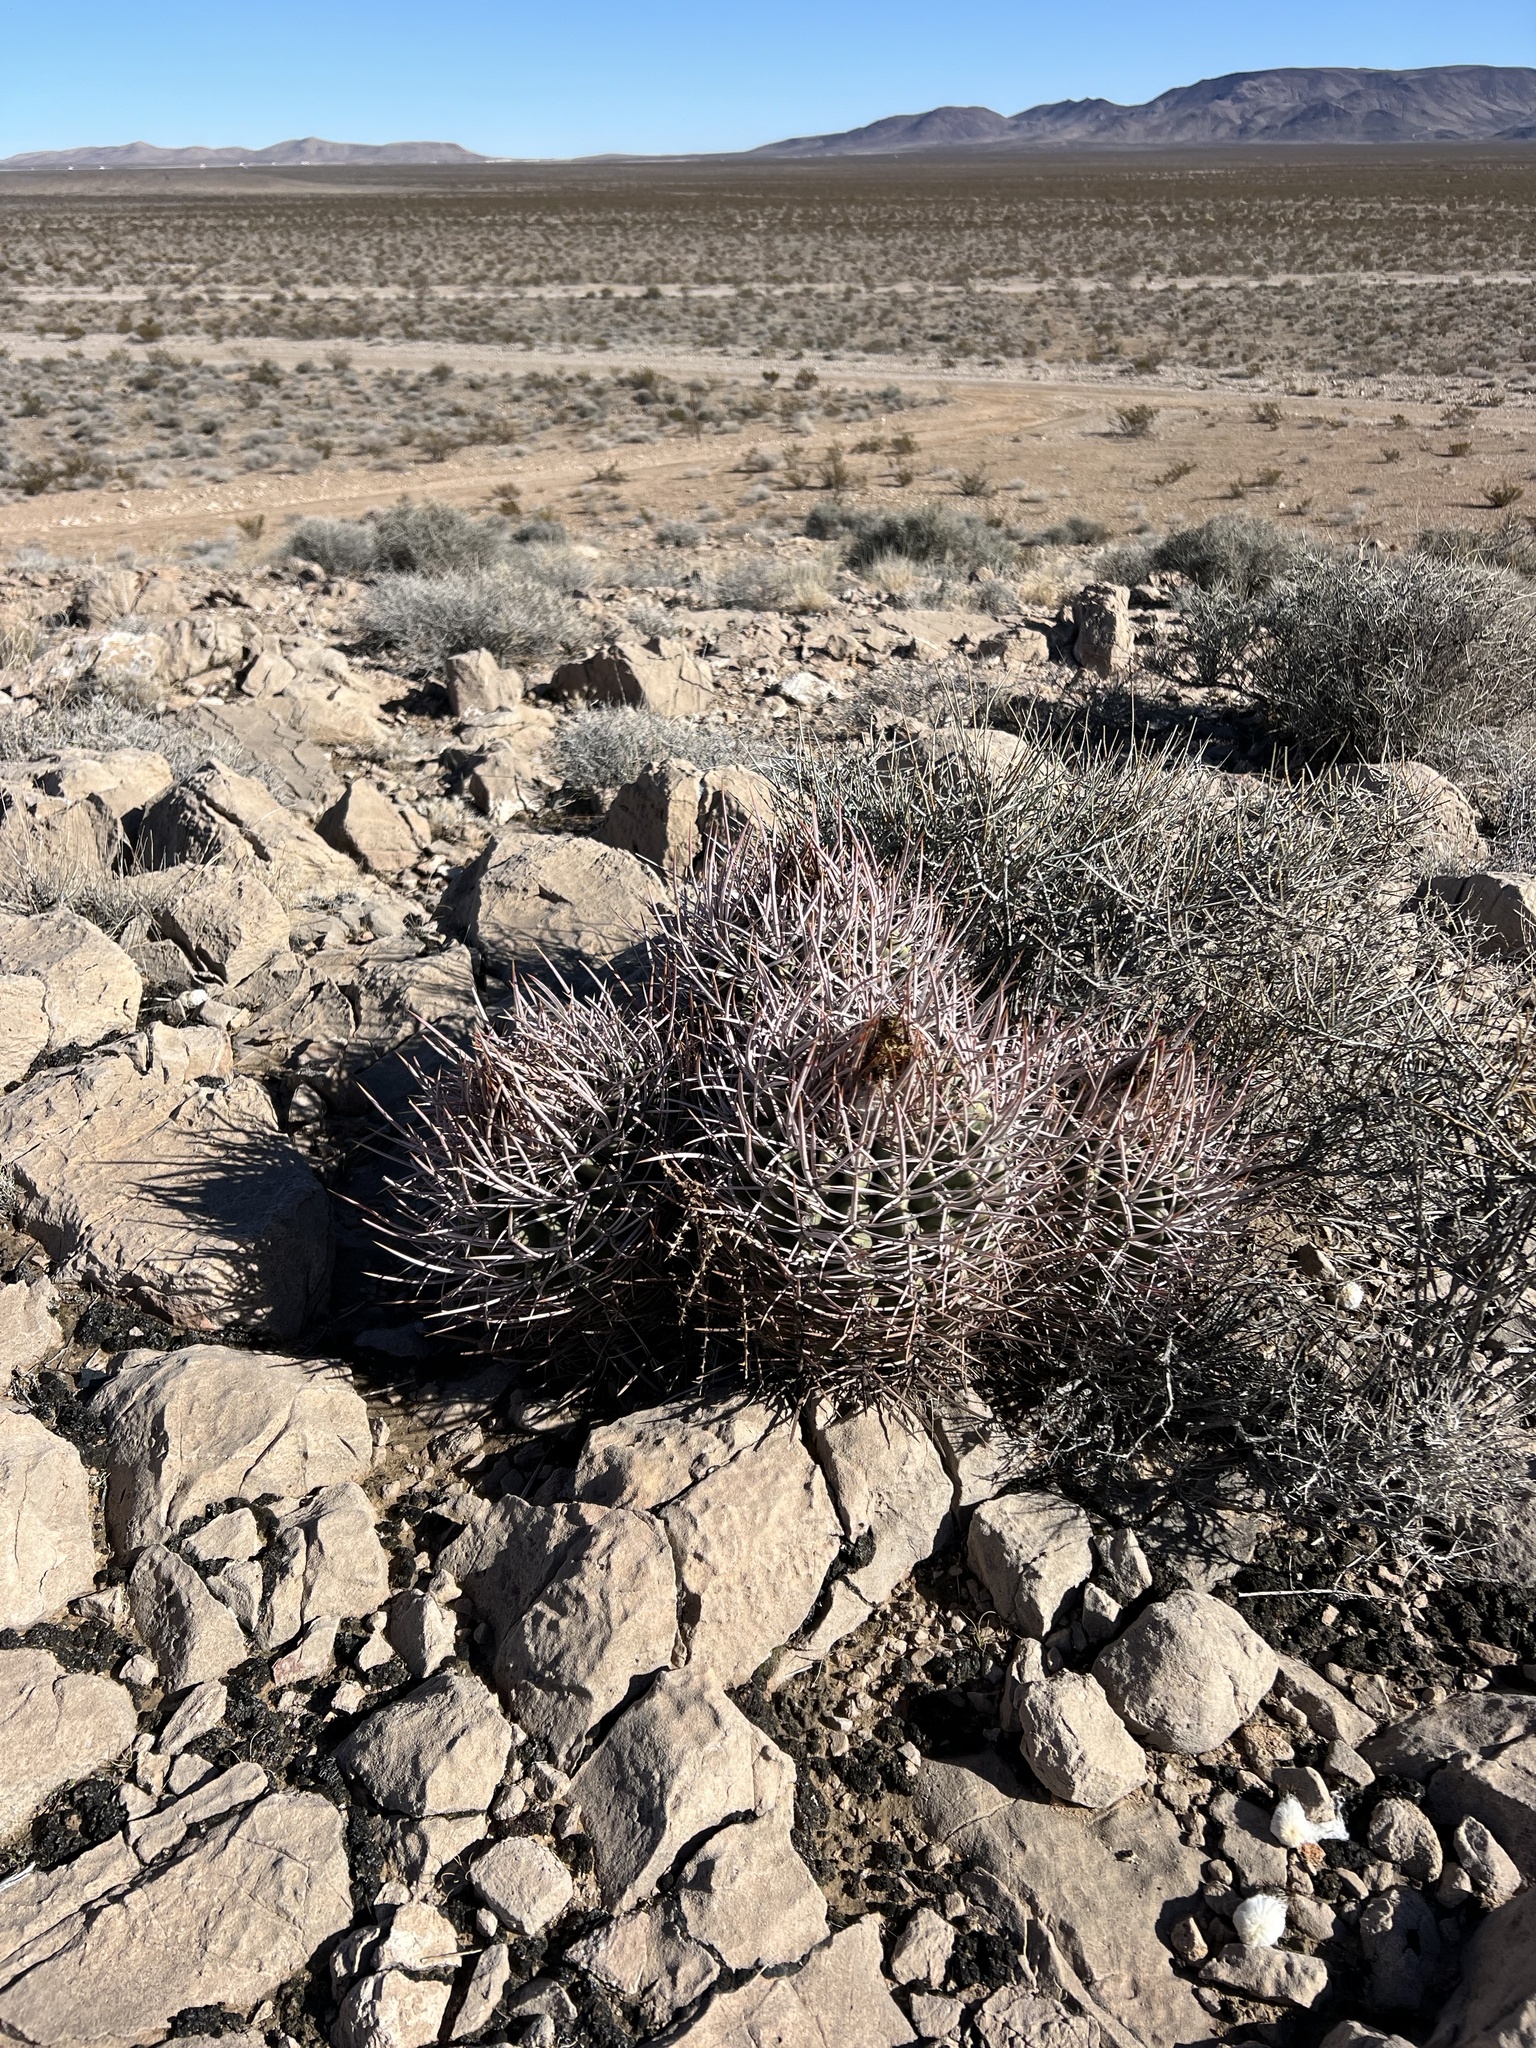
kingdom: Plantae
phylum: Tracheophyta
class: Magnoliopsida
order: Caryophyllales
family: Cactaceae
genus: Echinocactus
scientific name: Echinocactus polycephalus
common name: Cottontop cactus
